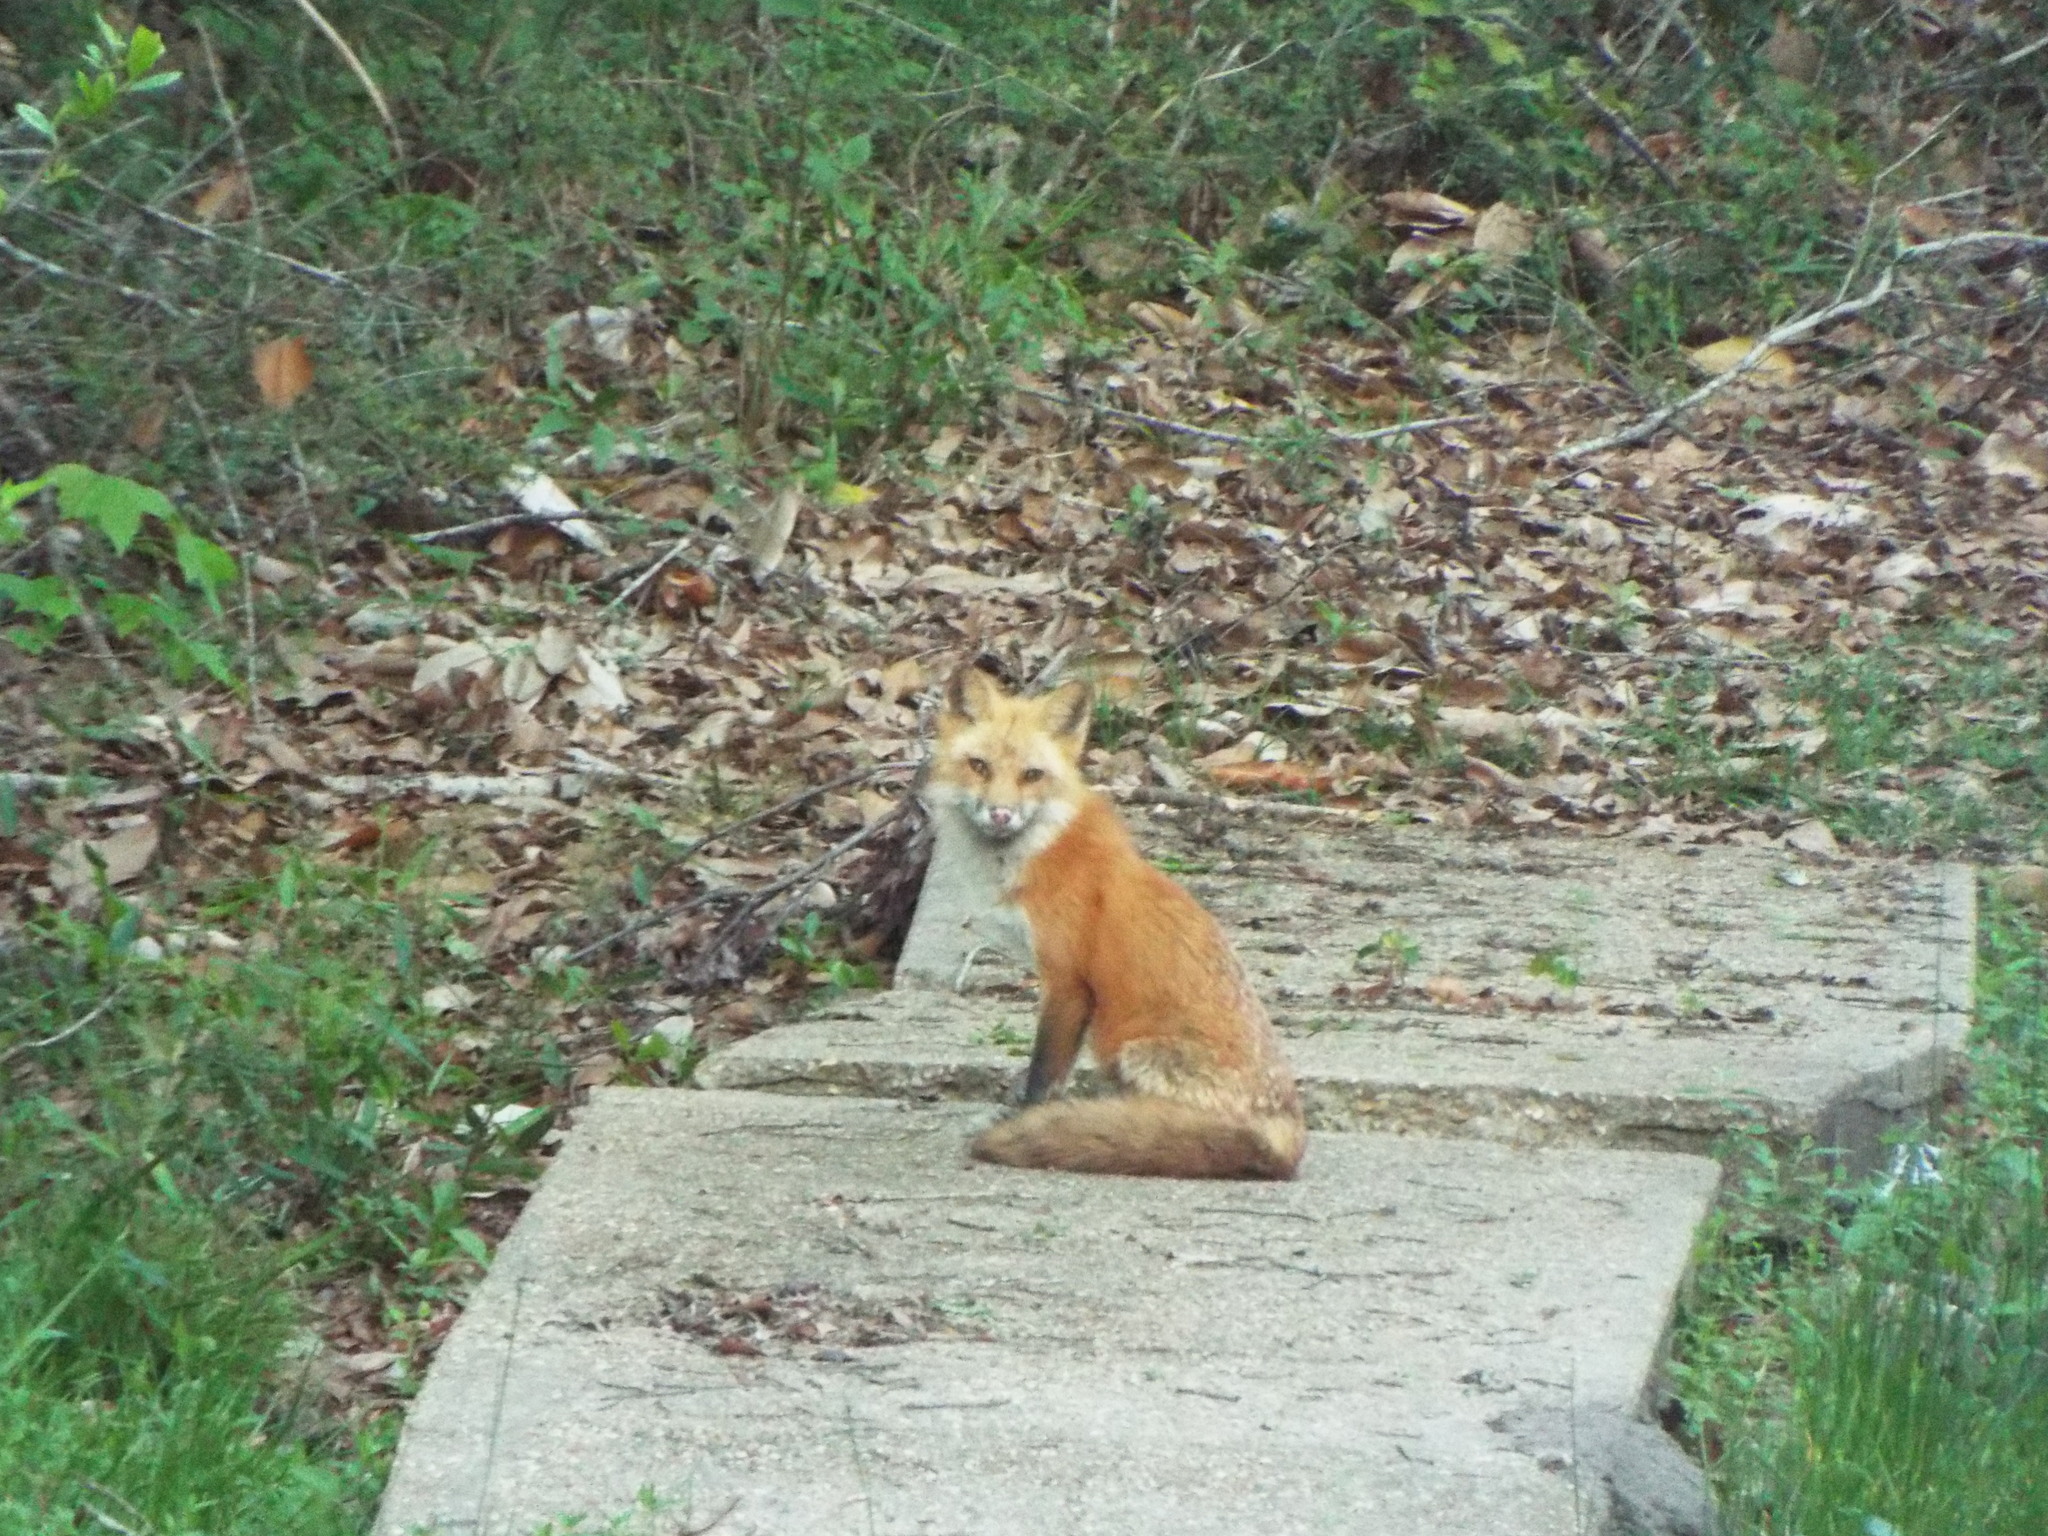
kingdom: Animalia
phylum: Chordata
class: Mammalia
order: Carnivora
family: Canidae
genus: Vulpes
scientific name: Vulpes vulpes
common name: Red fox
